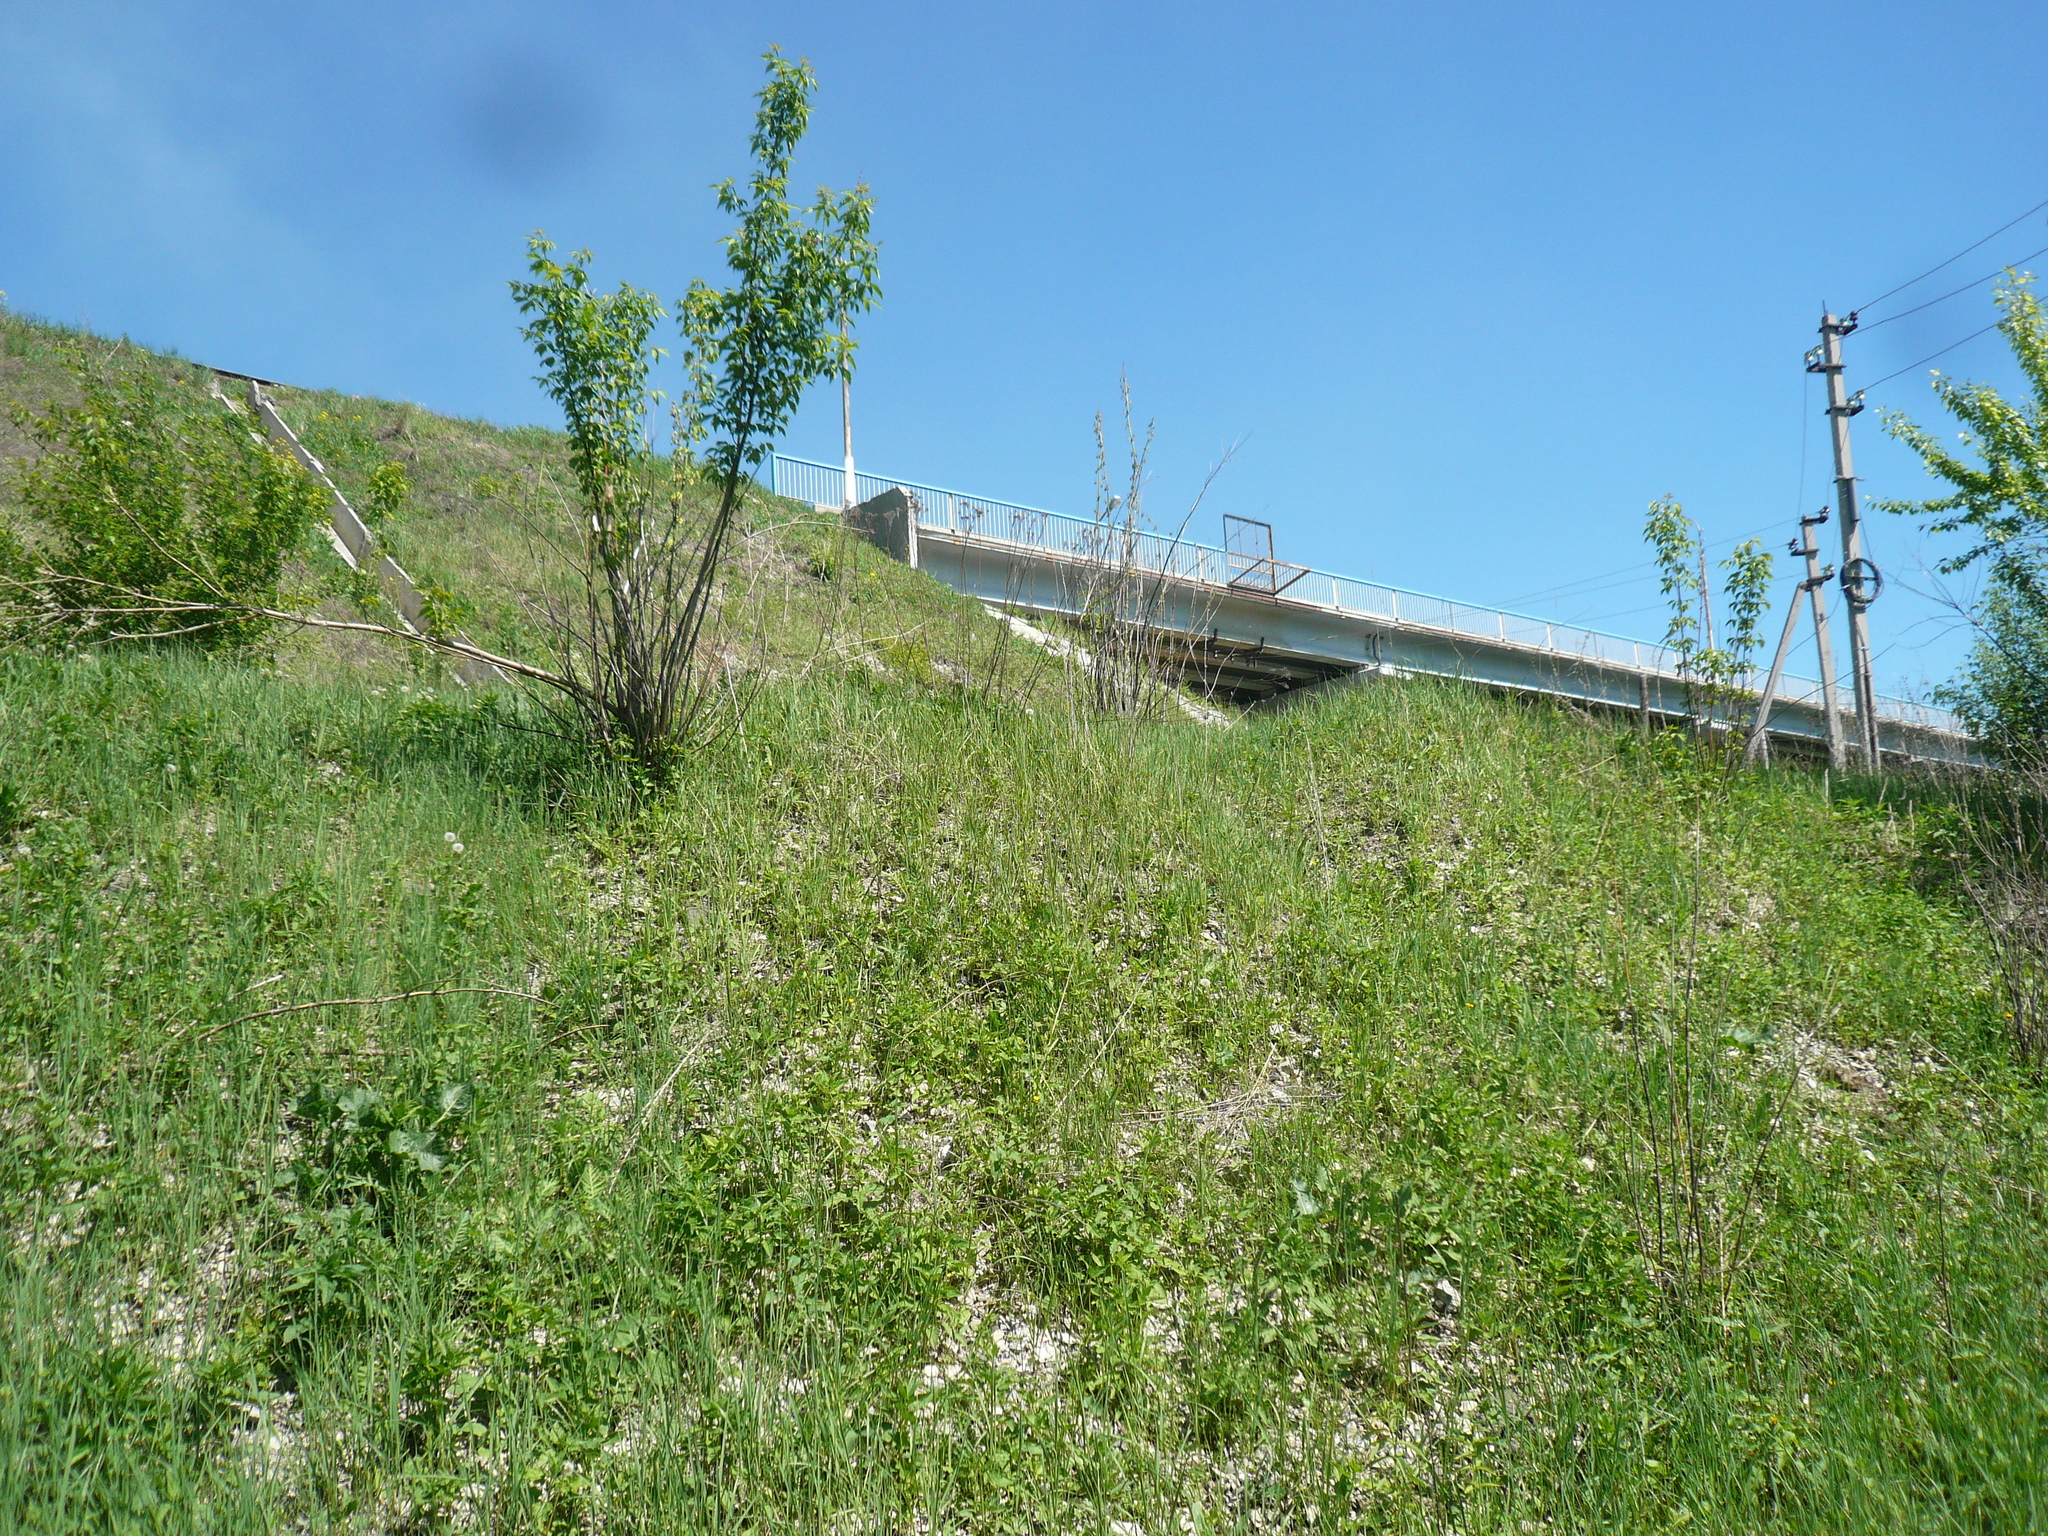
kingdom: Plantae
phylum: Tracheophyta
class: Magnoliopsida
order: Sapindales
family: Sapindaceae
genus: Acer
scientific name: Acer negundo
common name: Ashleaf maple
